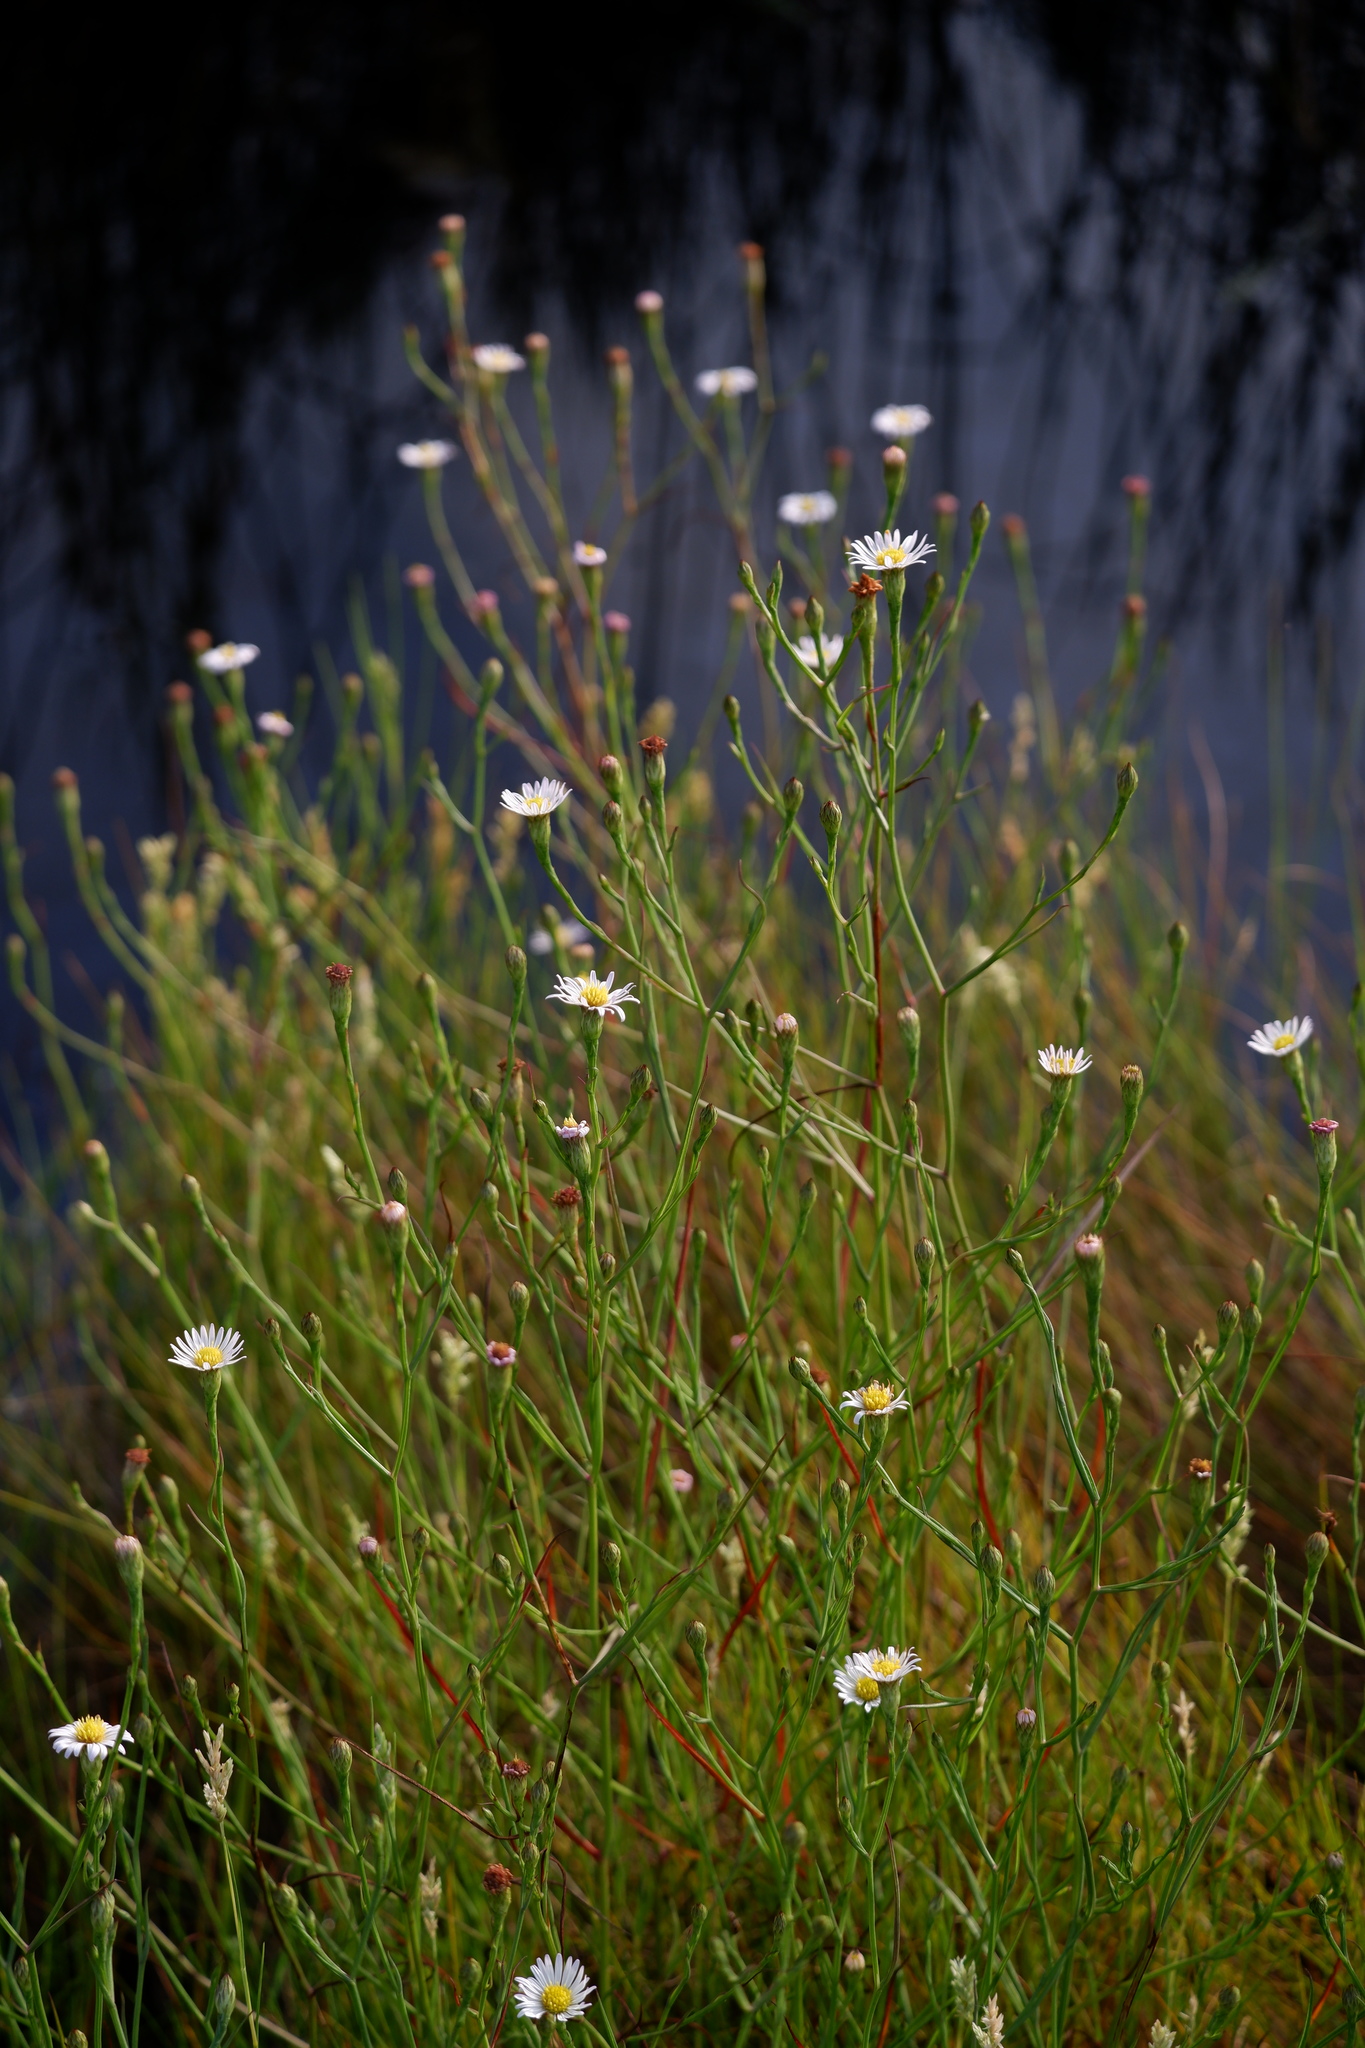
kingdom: Plantae
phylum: Tracheophyta
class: Magnoliopsida
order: Asterales
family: Asteraceae
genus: Symphyotrichum
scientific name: Symphyotrichum tenuifolium
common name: Perennial salt-marsh aster
